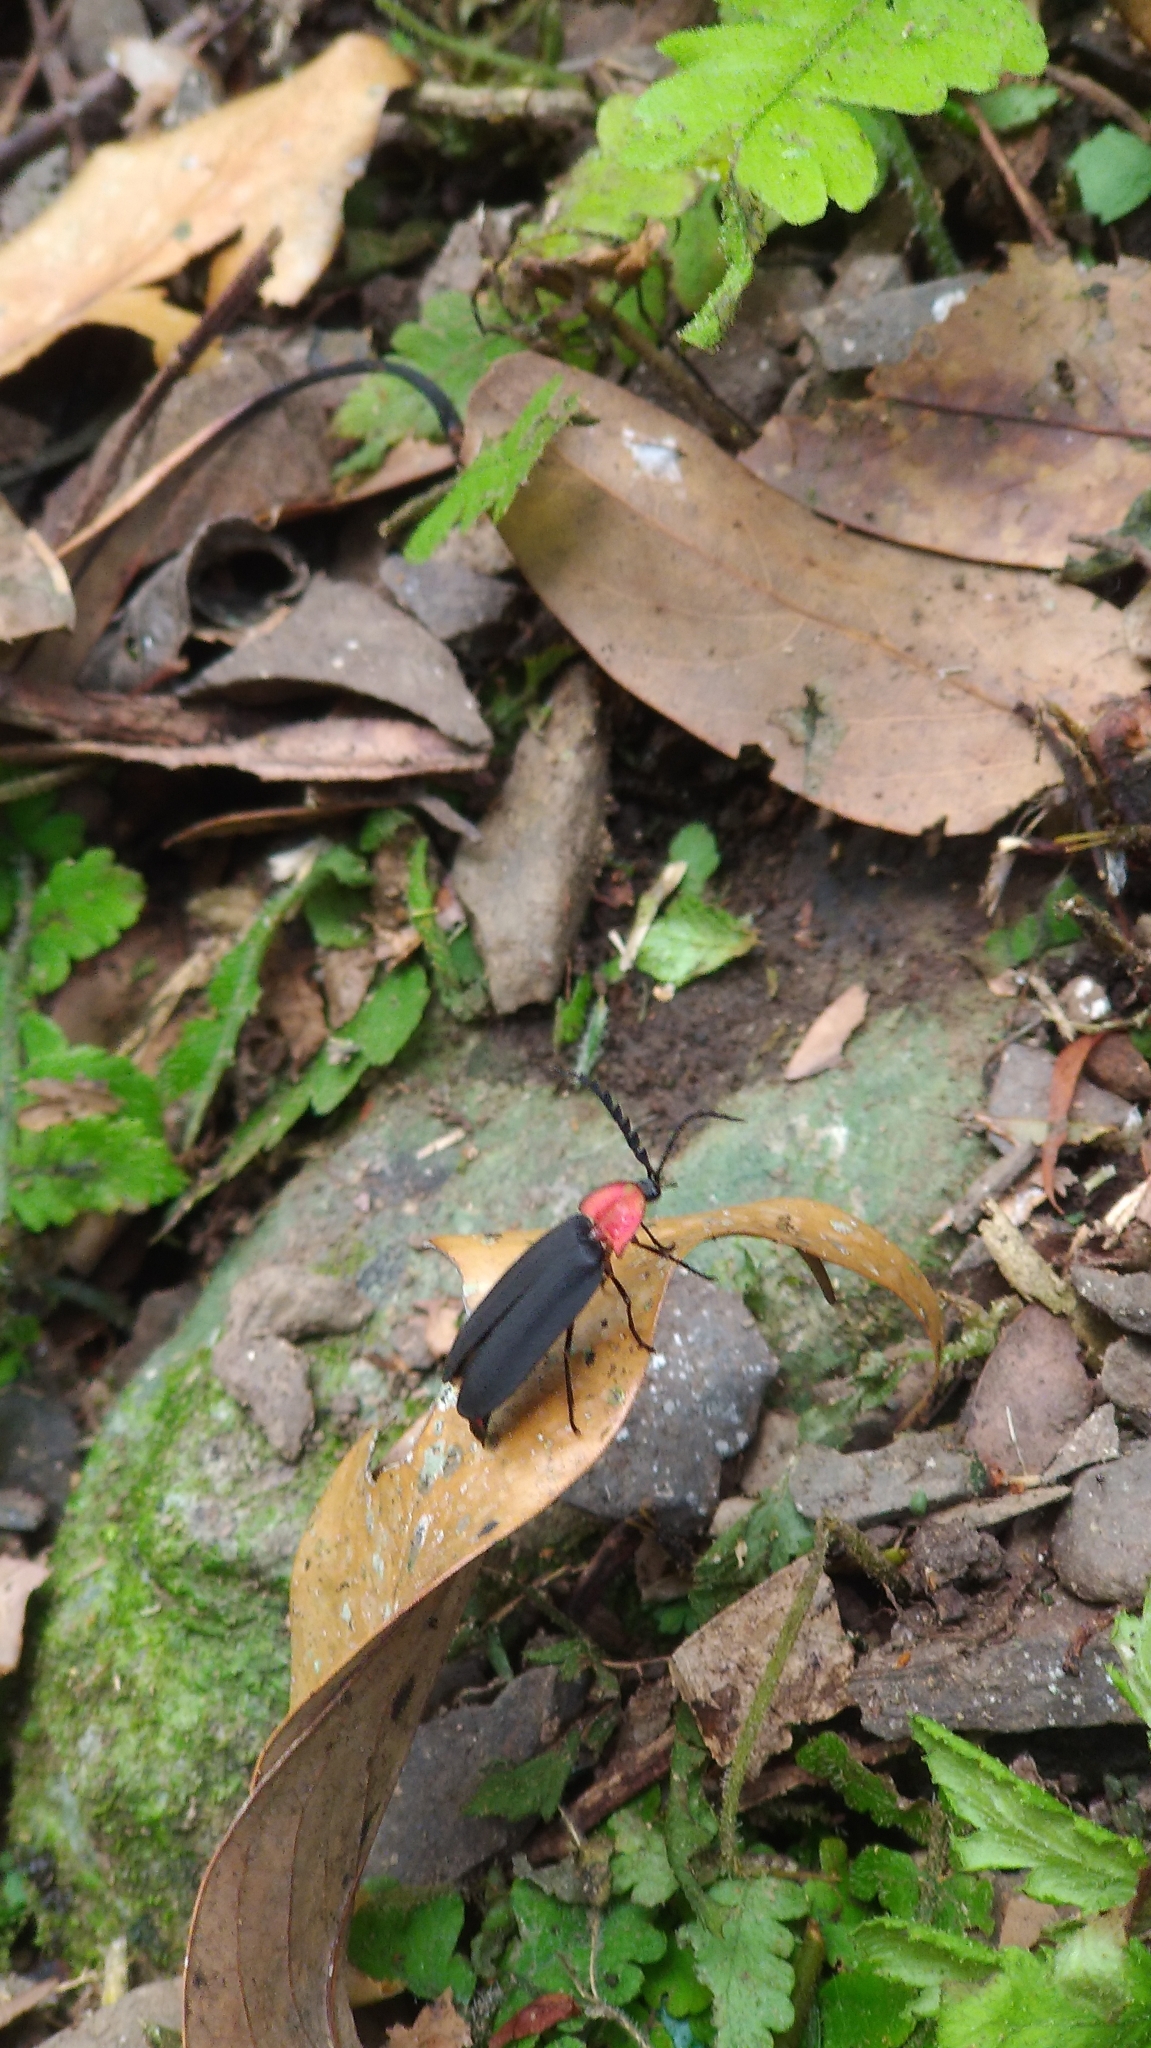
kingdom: Animalia
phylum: Arthropoda
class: Insecta
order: Coleoptera
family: Lampyridae
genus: Vesta
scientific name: Vesta impressicollis
